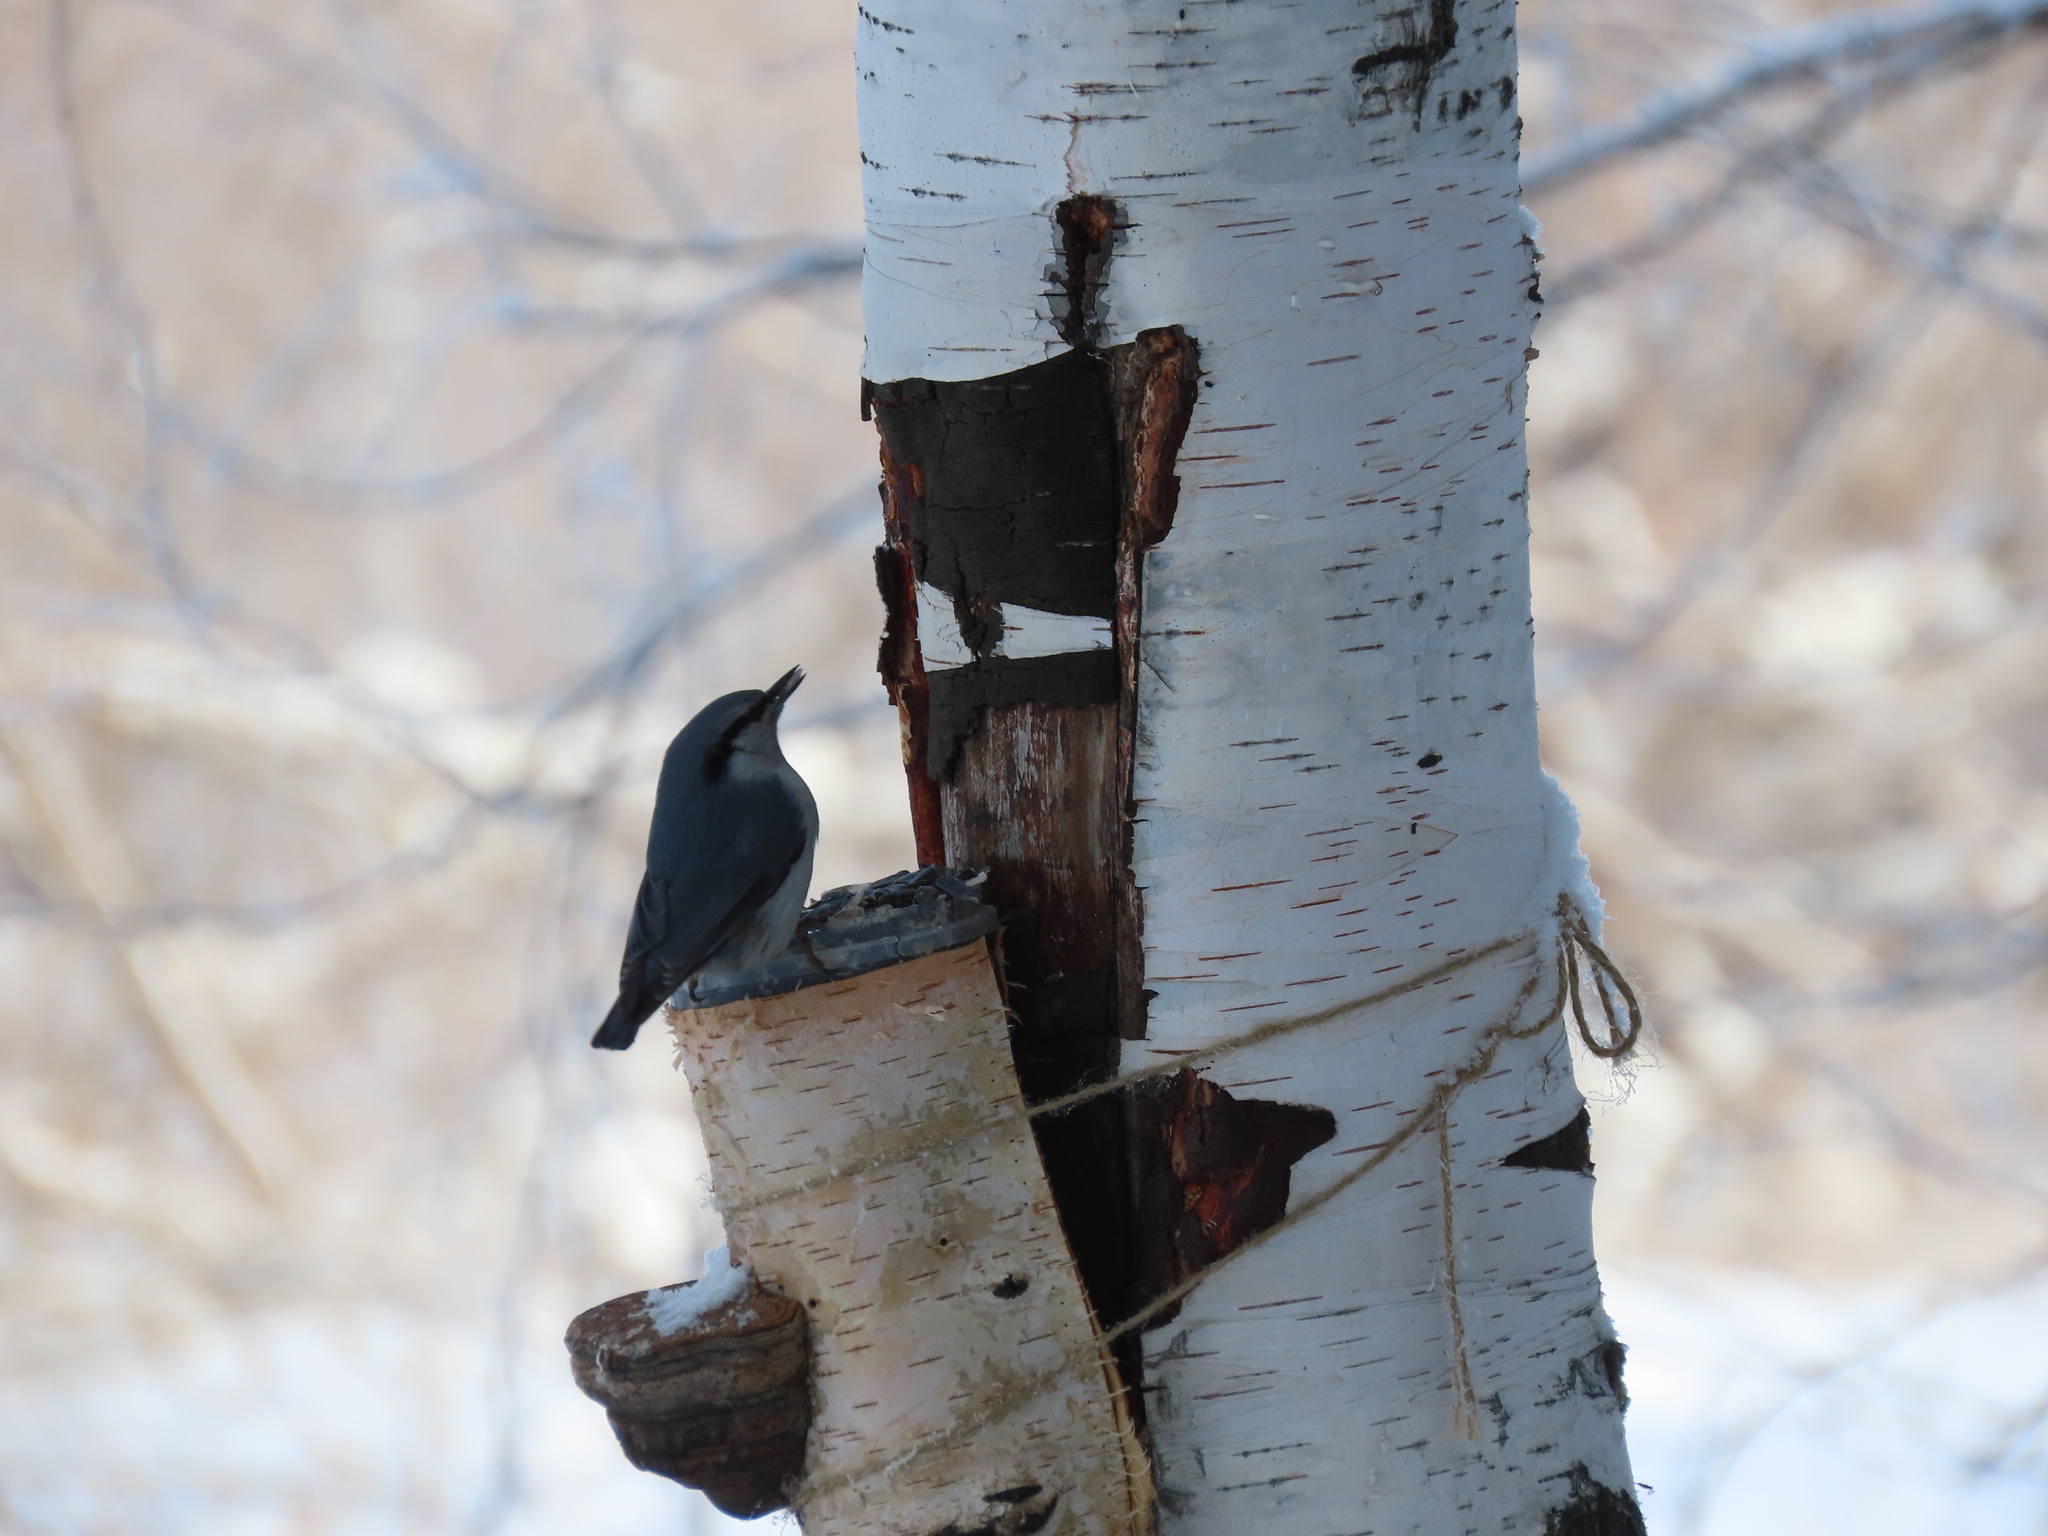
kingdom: Animalia
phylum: Chordata
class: Aves
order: Passeriformes
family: Sittidae
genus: Sitta
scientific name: Sitta europaea
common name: Eurasian nuthatch
